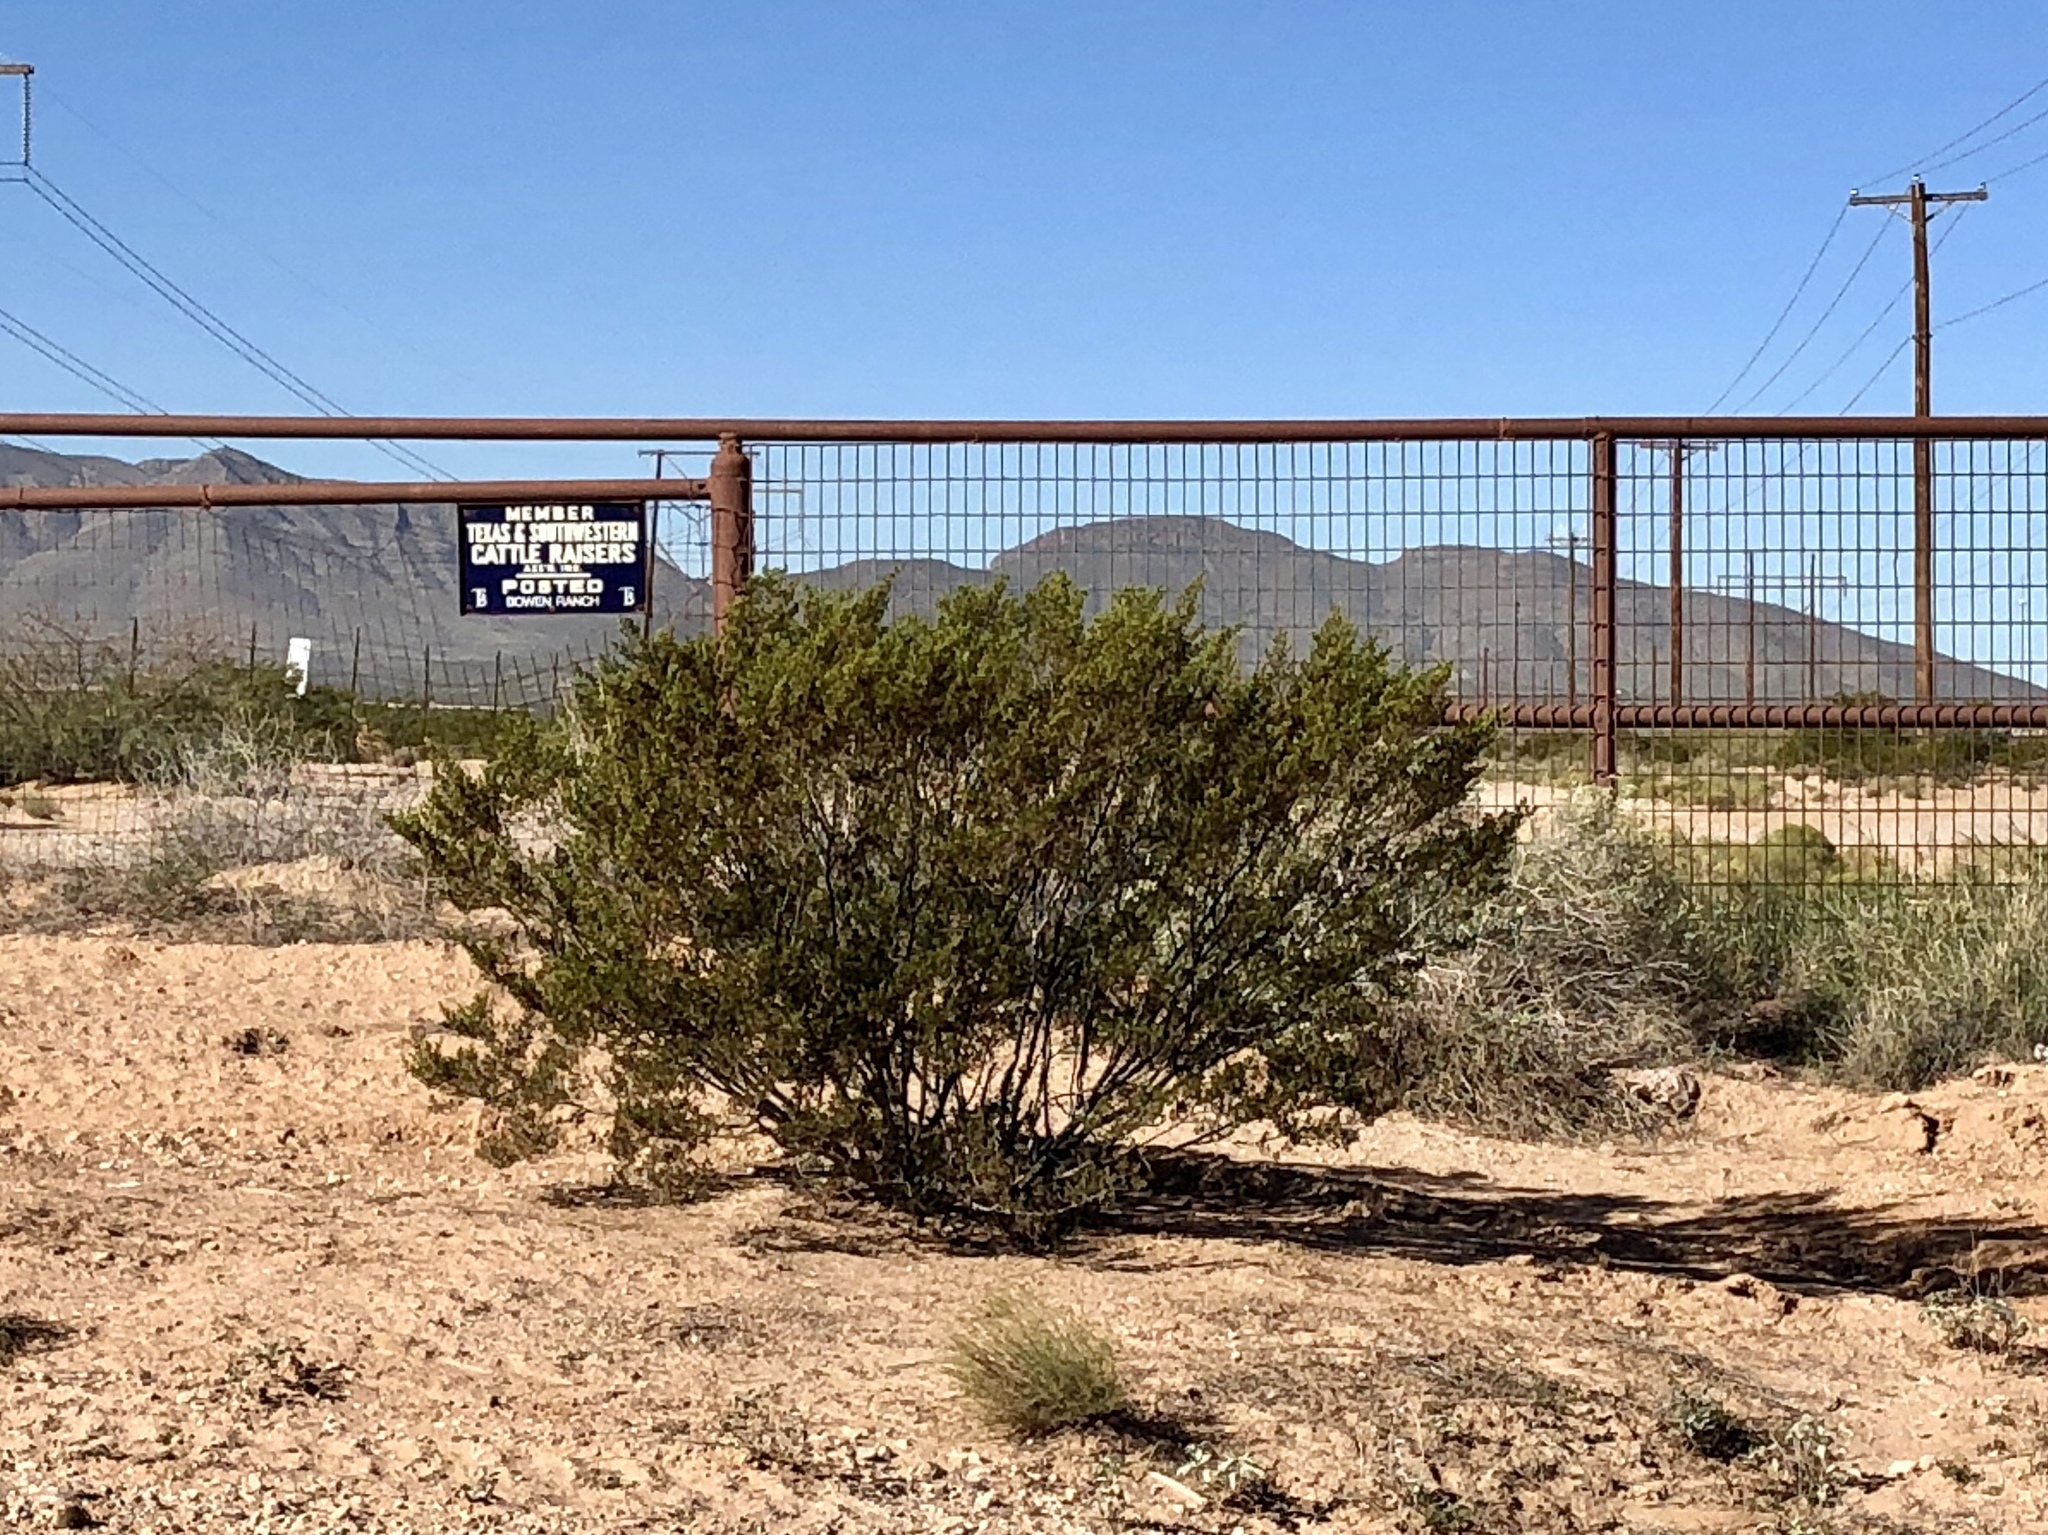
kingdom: Plantae
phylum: Tracheophyta
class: Magnoliopsida
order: Zygophyllales
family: Zygophyllaceae
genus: Larrea
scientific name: Larrea tridentata
